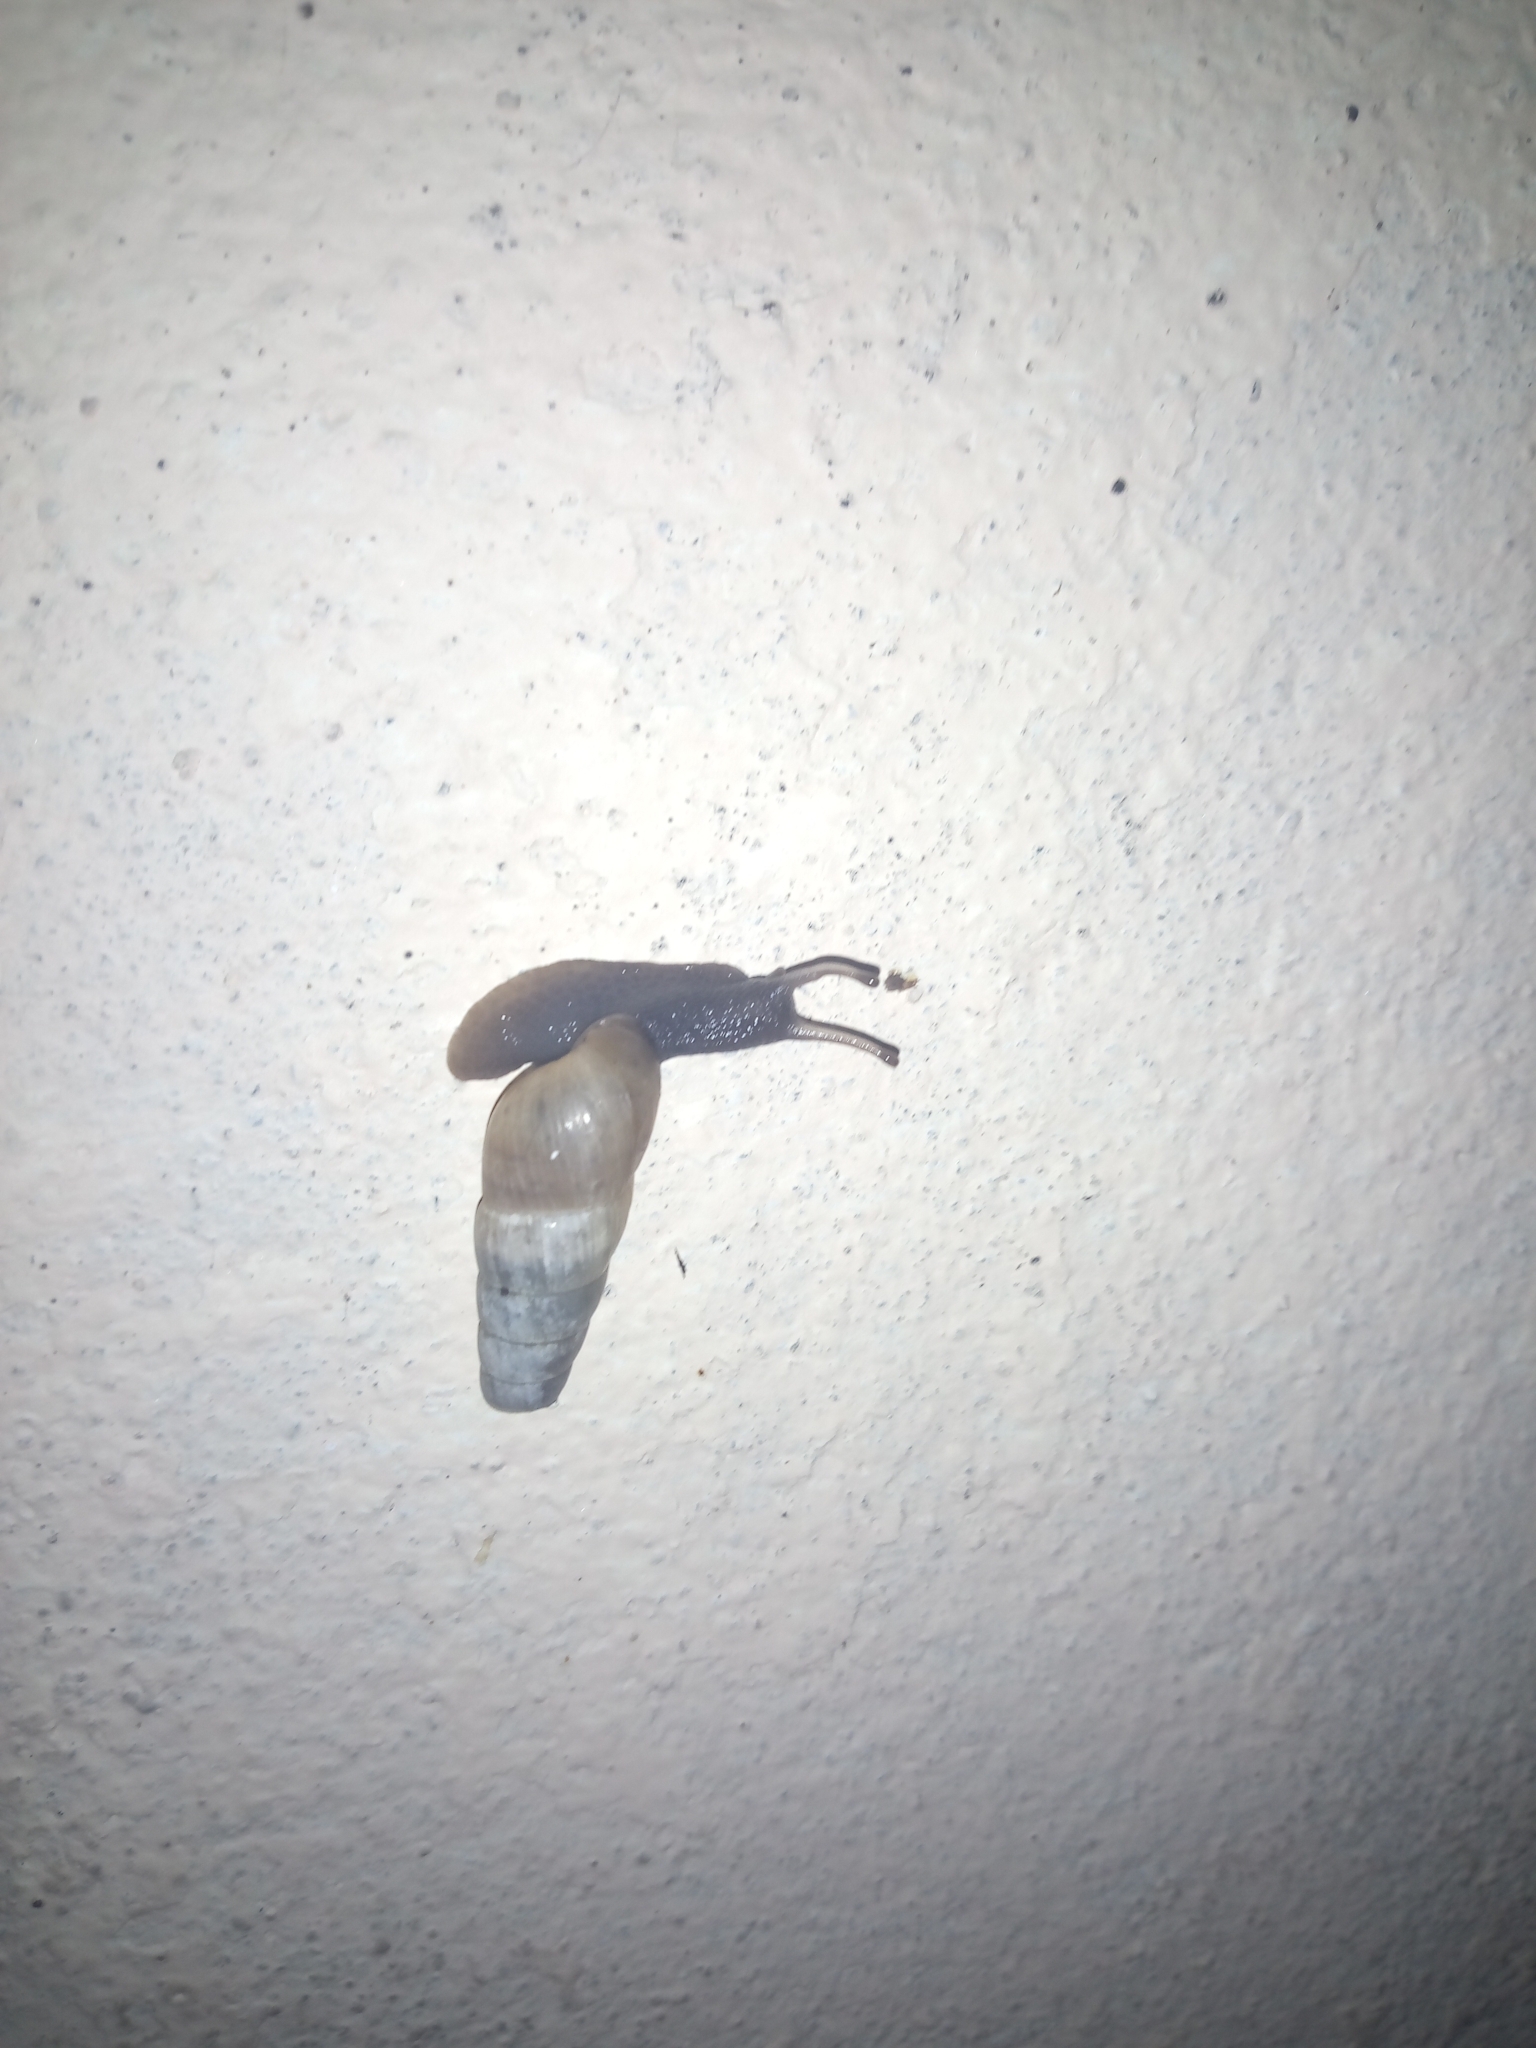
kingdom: Animalia
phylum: Mollusca
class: Gastropoda
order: Stylommatophora
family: Achatinidae
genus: Rumina
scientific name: Rumina decollata
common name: Decollate snail
